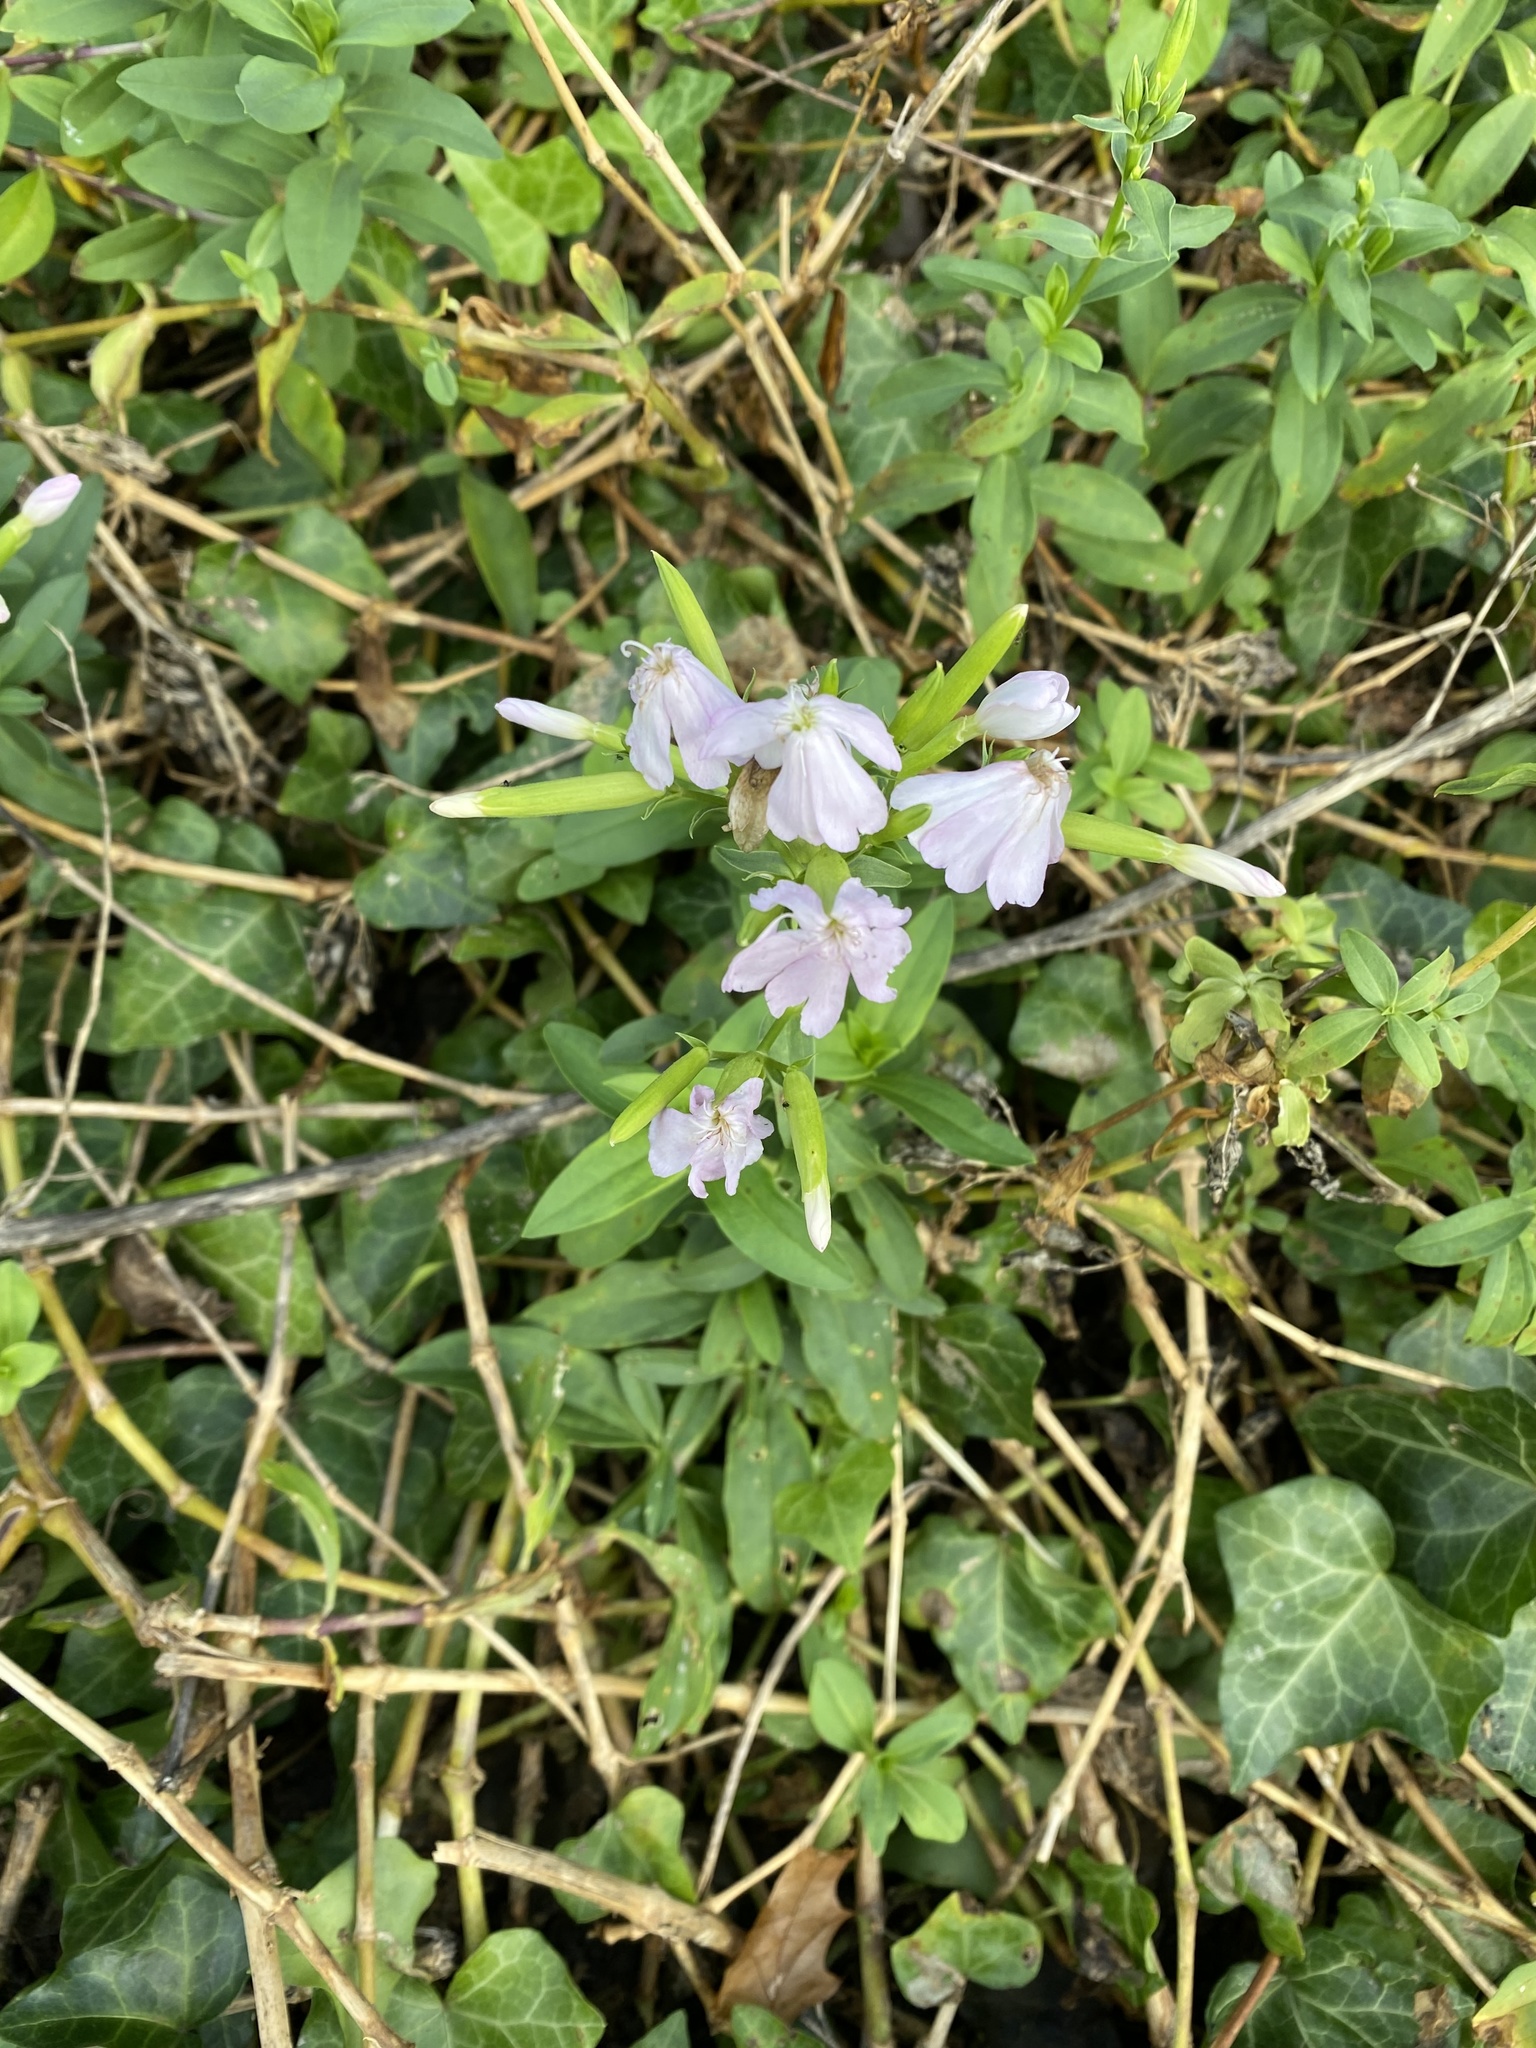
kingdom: Plantae
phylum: Tracheophyta
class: Magnoliopsida
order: Caryophyllales
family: Caryophyllaceae
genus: Saponaria
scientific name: Saponaria officinalis
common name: Soapwort
